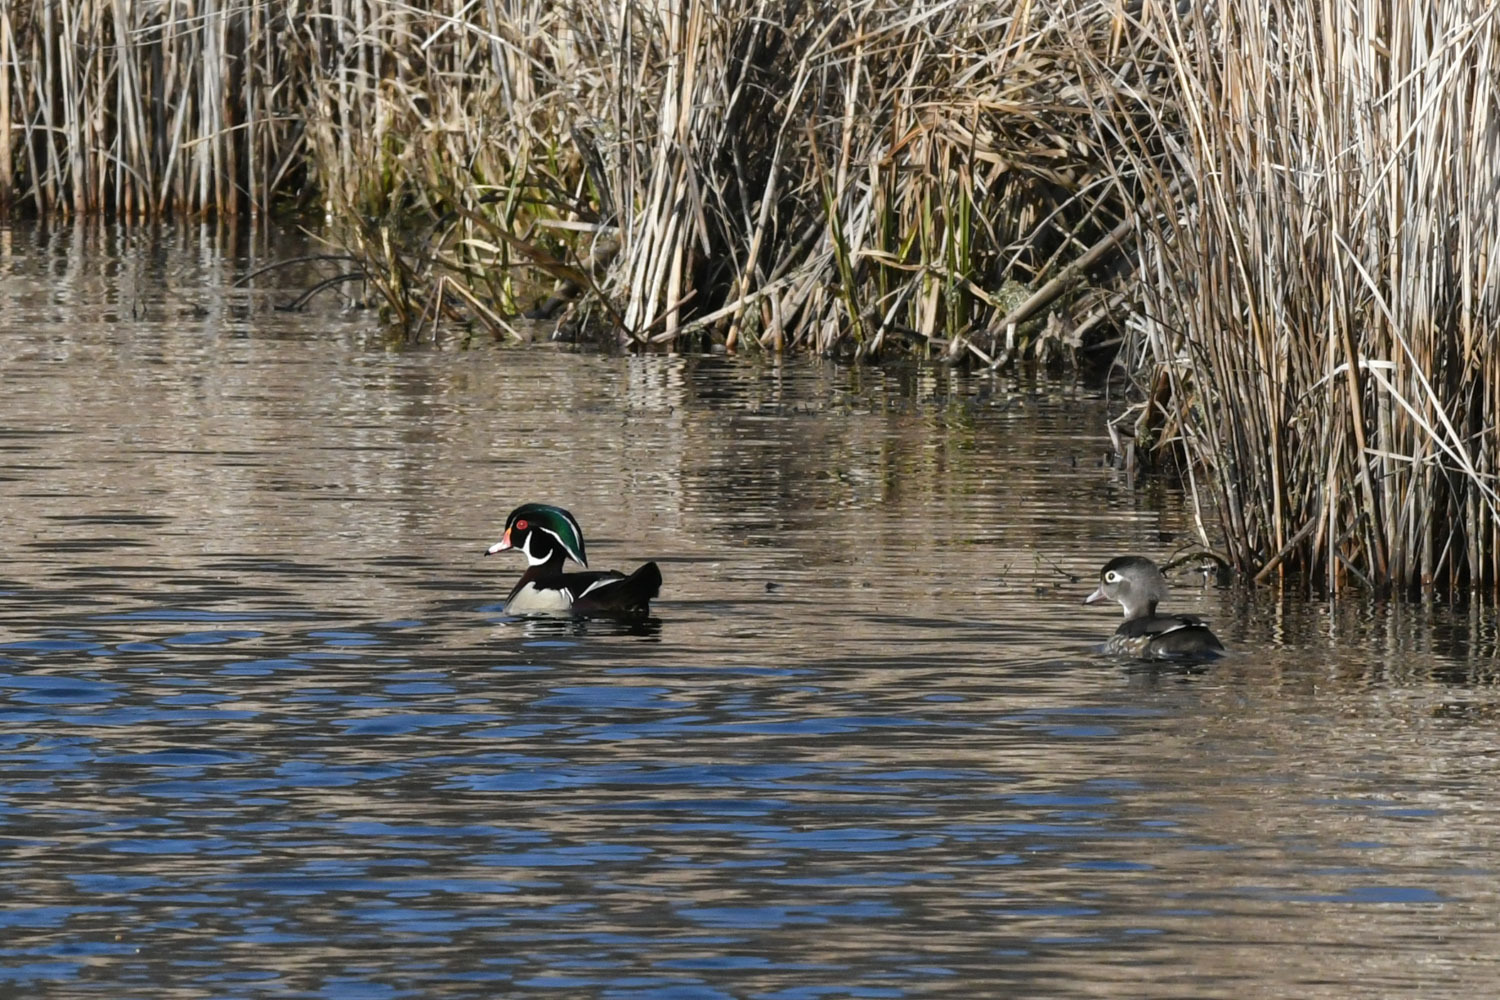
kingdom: Animalia
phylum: Chordata
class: Aves
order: Anseriformes
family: Anatidae
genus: Aix
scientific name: Aix sponsa
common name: Wood duck
